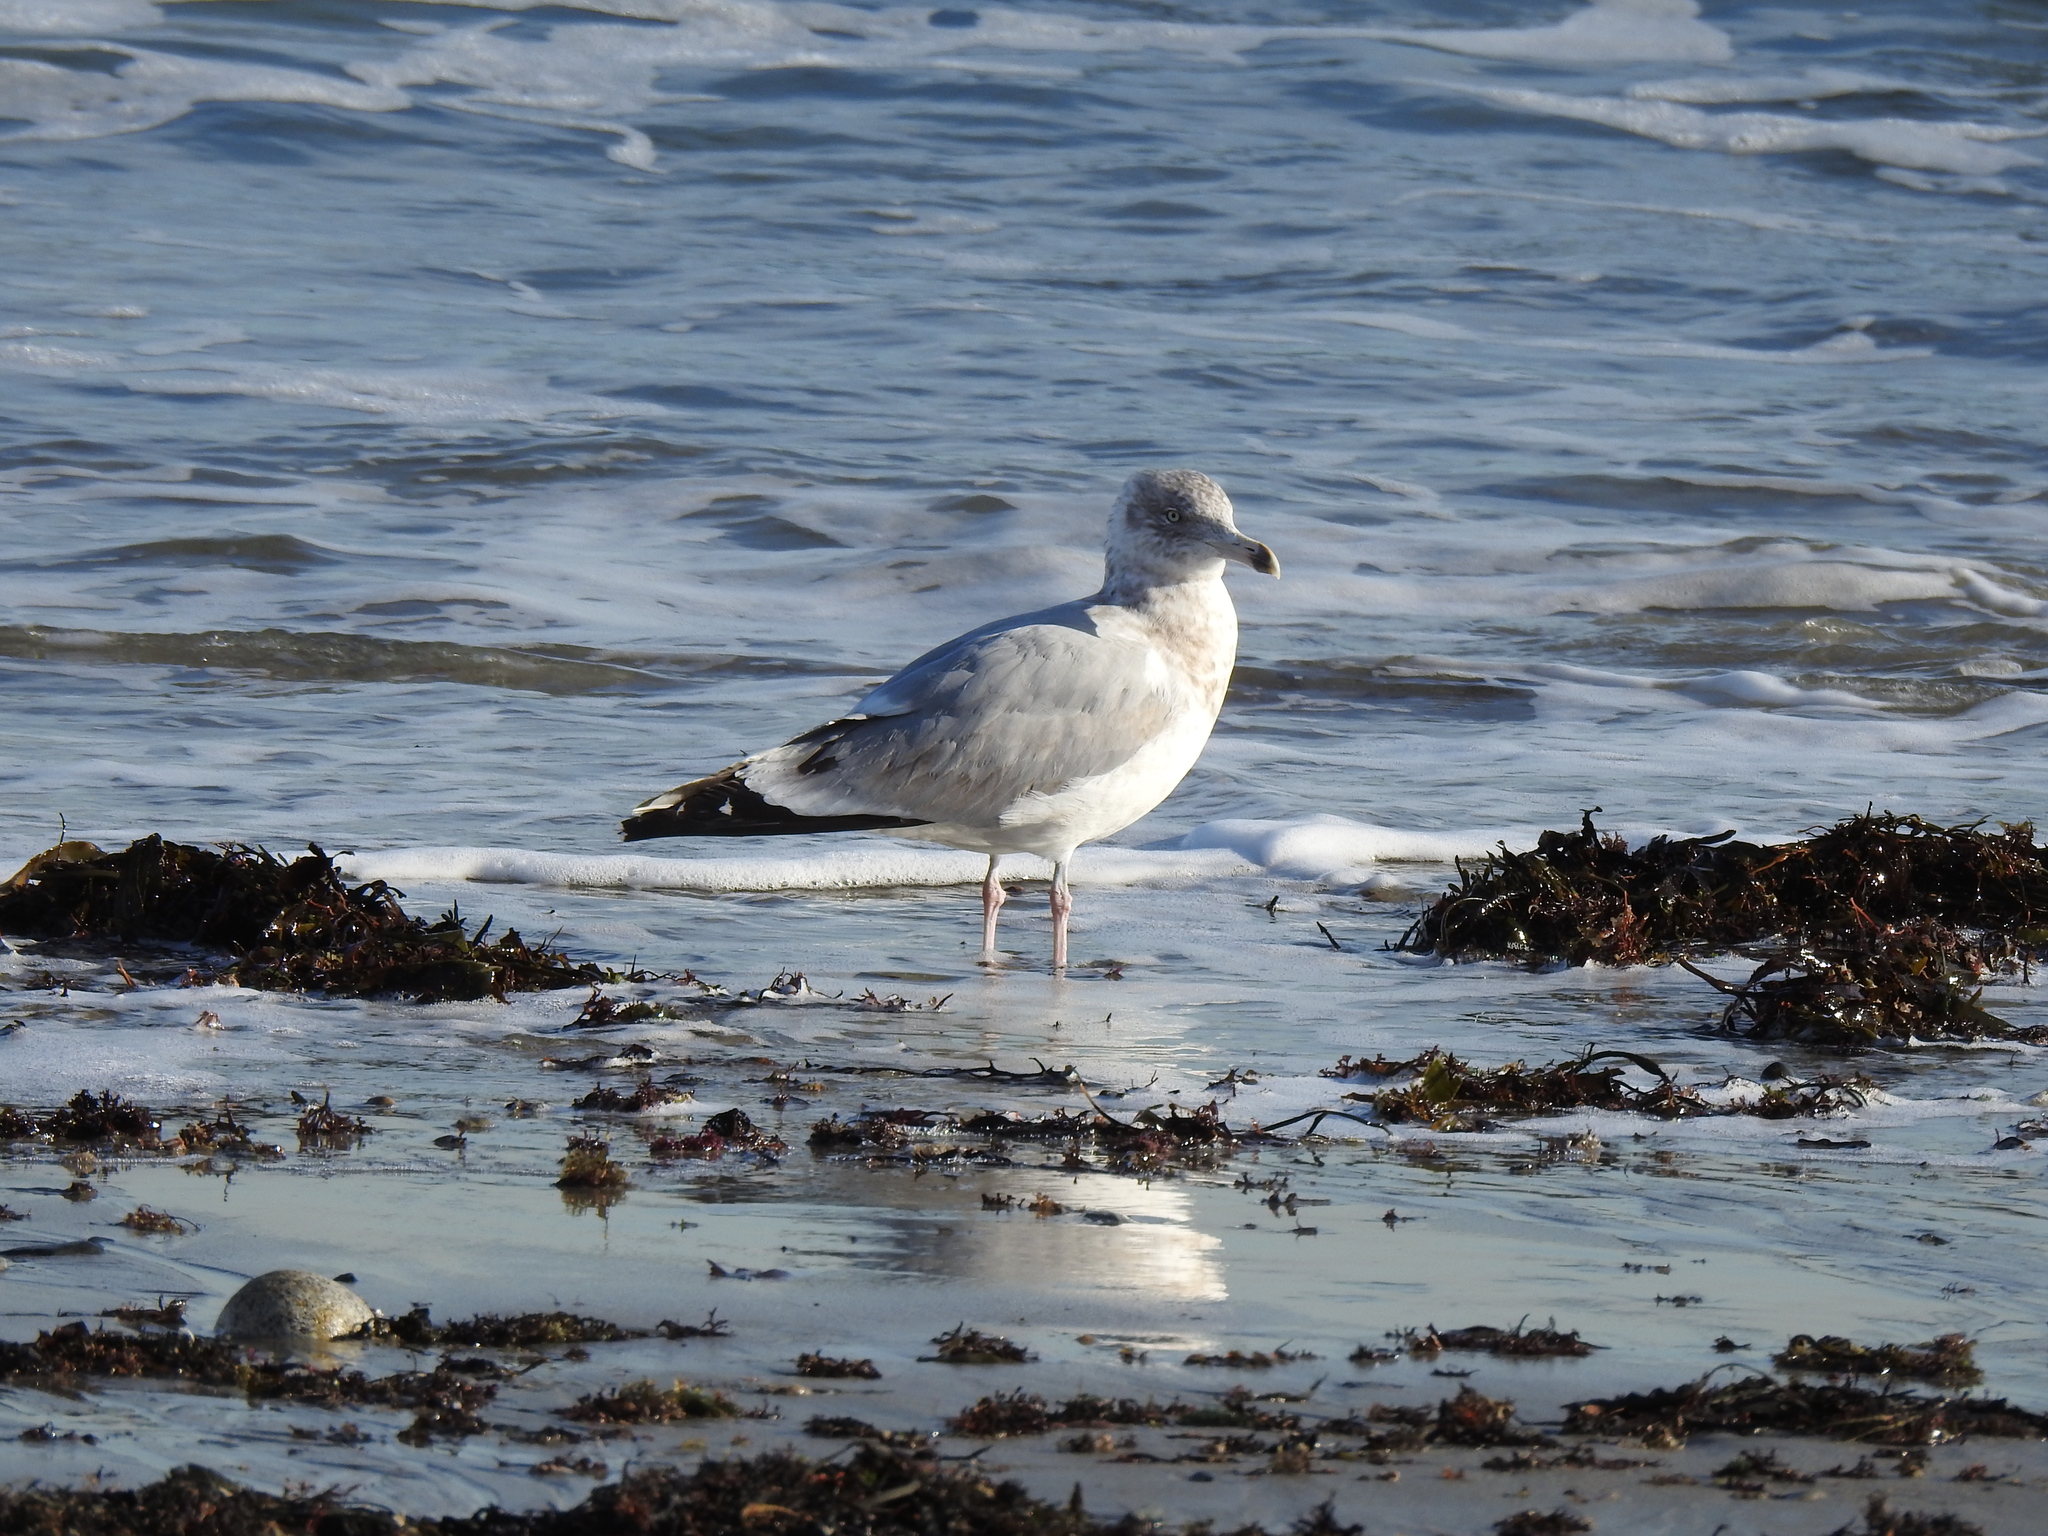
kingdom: Animalia
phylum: Chordata
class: Aves
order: Charadriiformes
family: Laridae
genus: Larus
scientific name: Larus argentatus
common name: Herring gull
